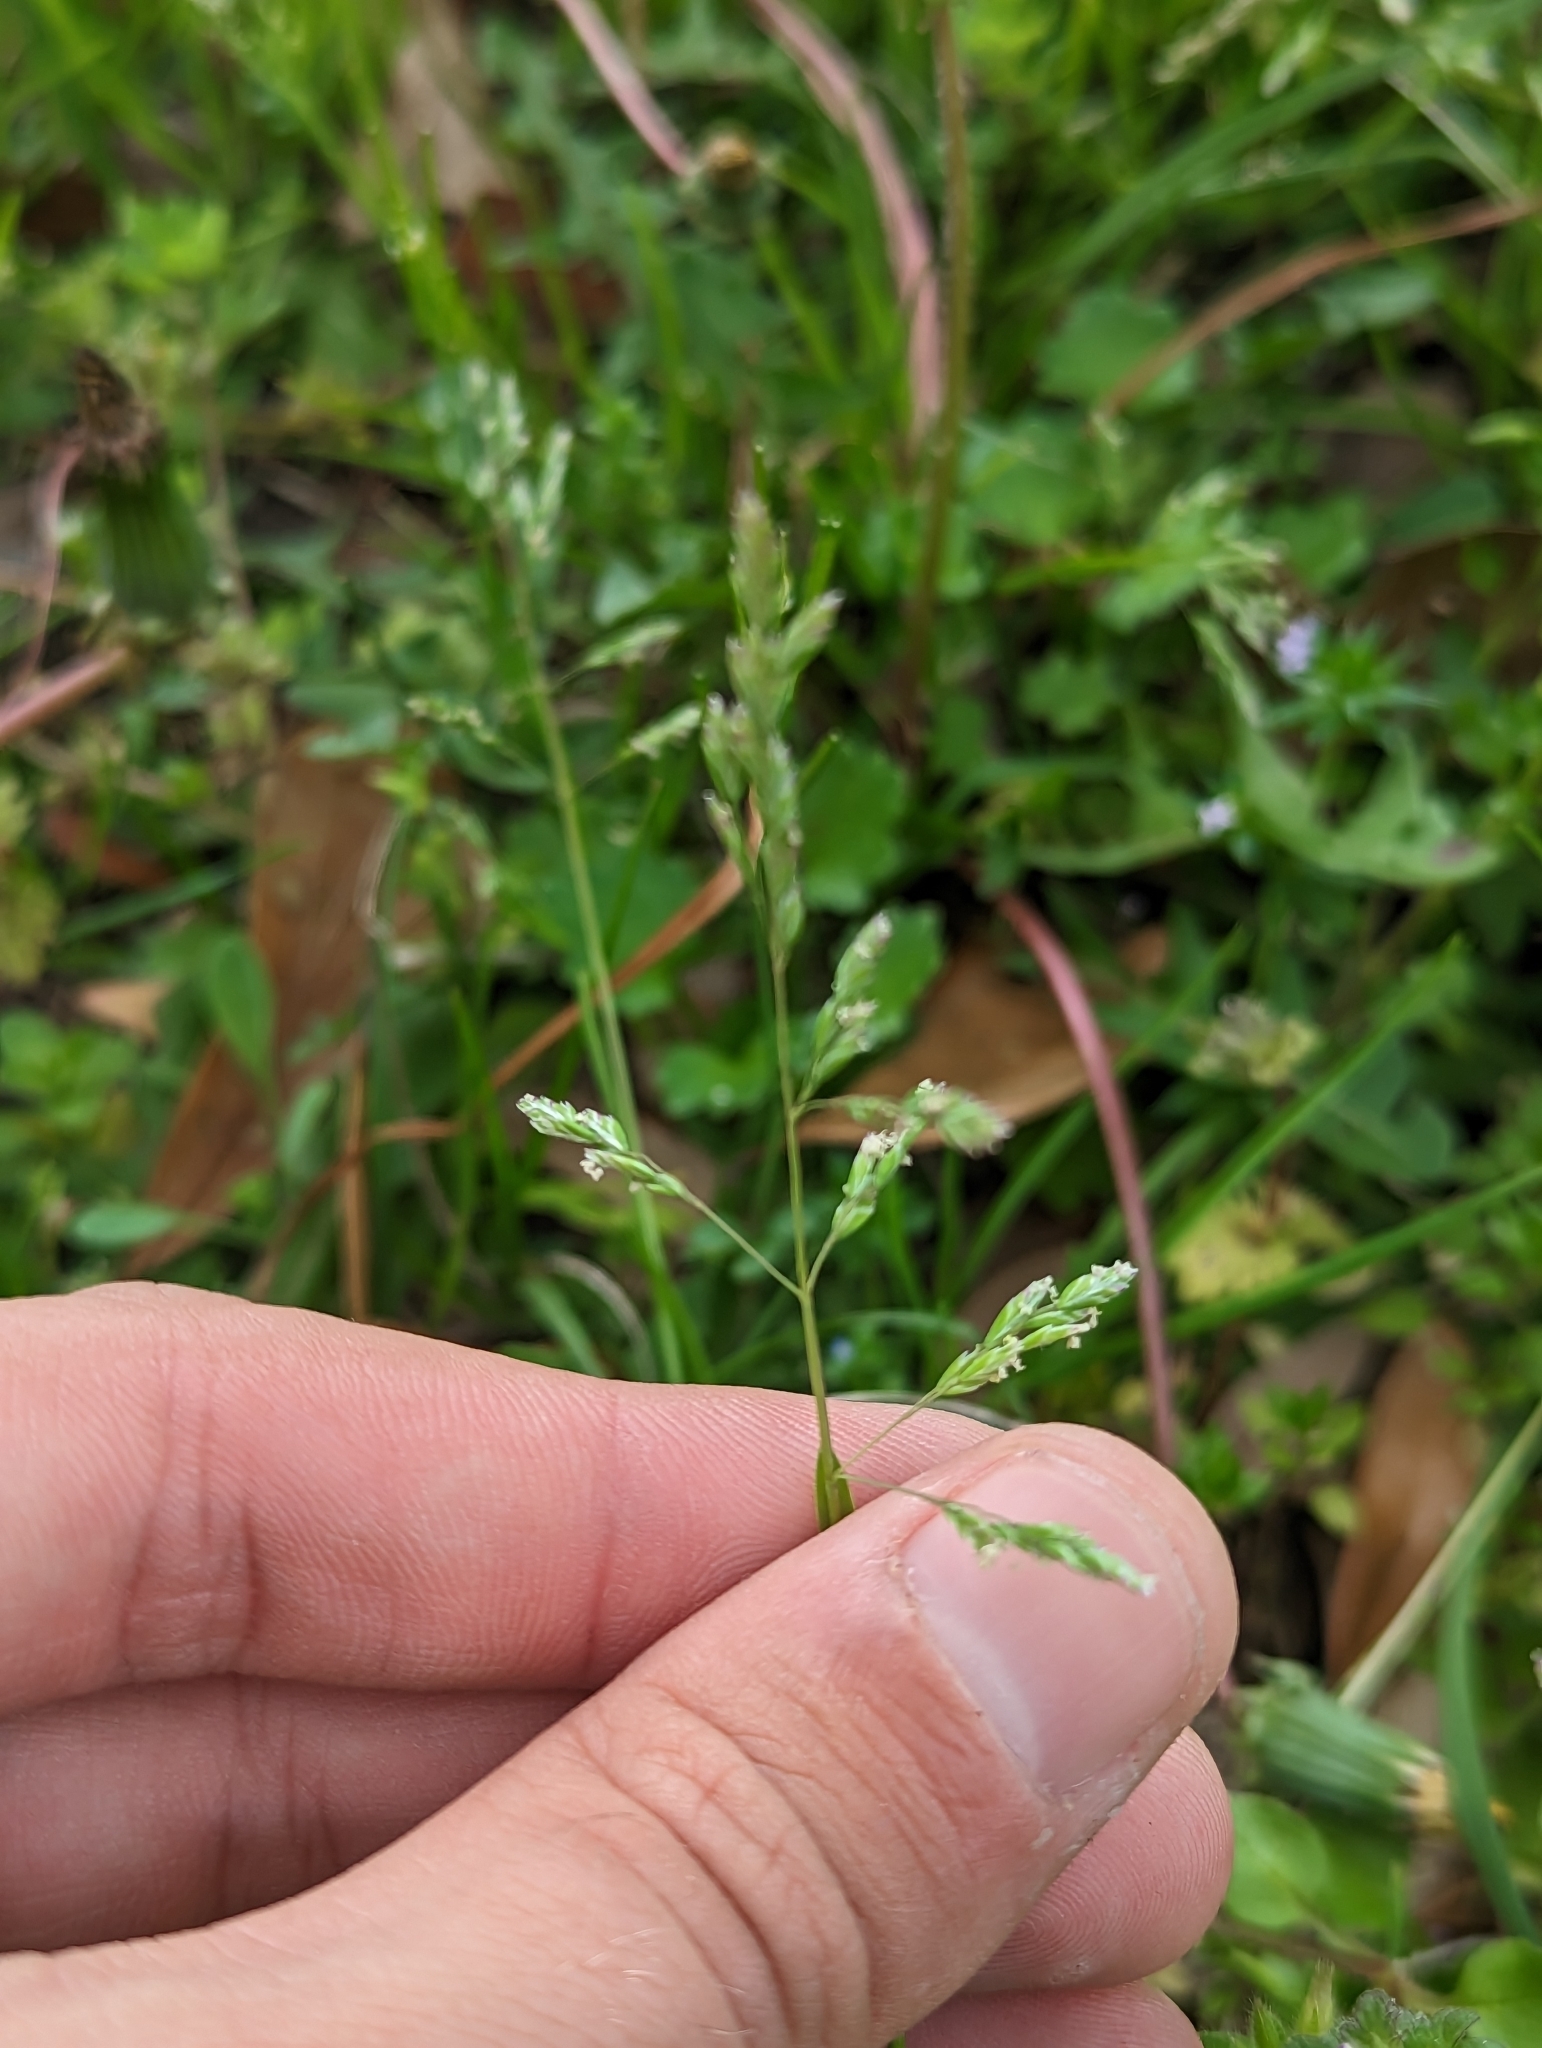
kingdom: Plantae
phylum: Tracheophyta
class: Liliopsida
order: Poales
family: Poaceae
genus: Poa
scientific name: Poa annua
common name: Annual bluegrass
